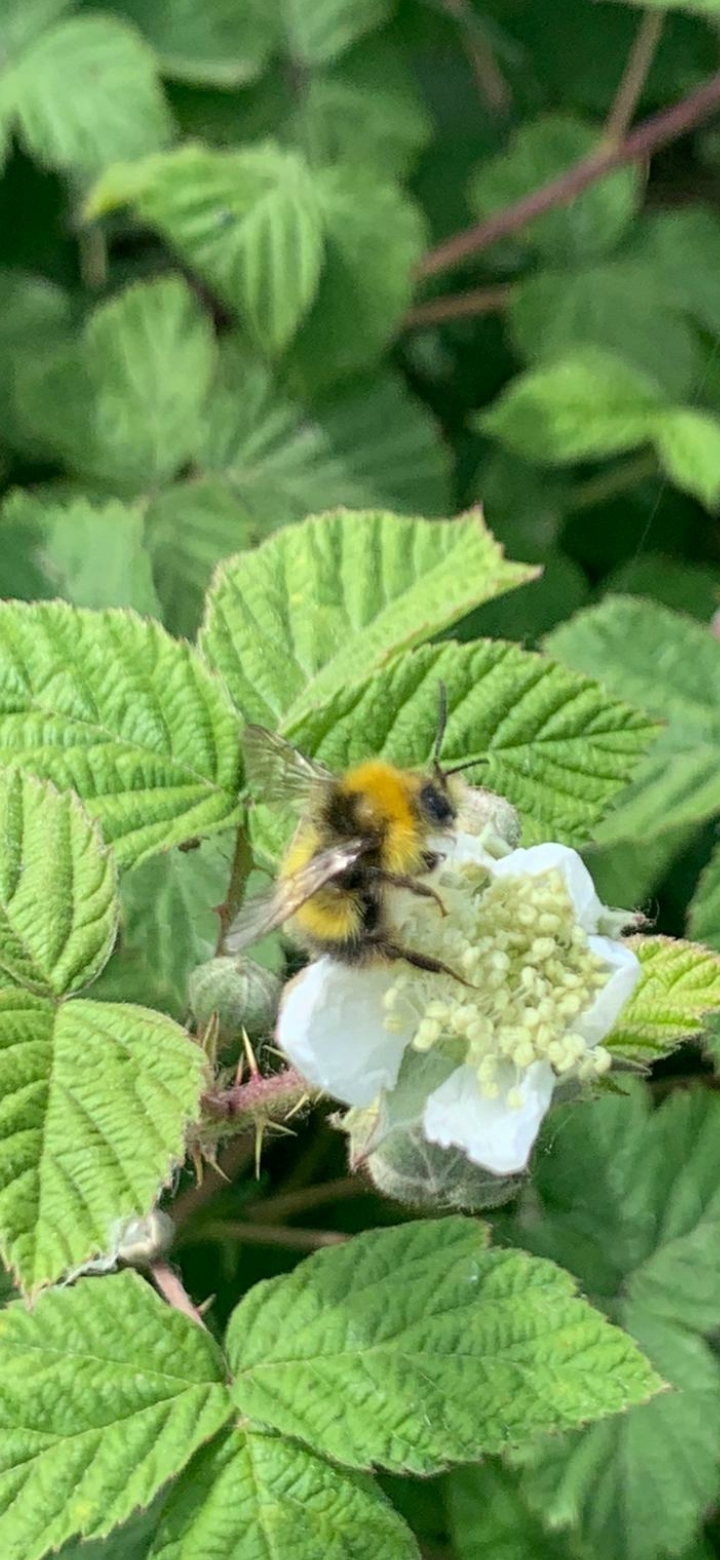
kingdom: Animalia
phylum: Arthropoda
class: Insecta
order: Hymenoptera
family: Apidae
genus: Bombus
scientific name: Bombus pratorum
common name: Early humble-bee
